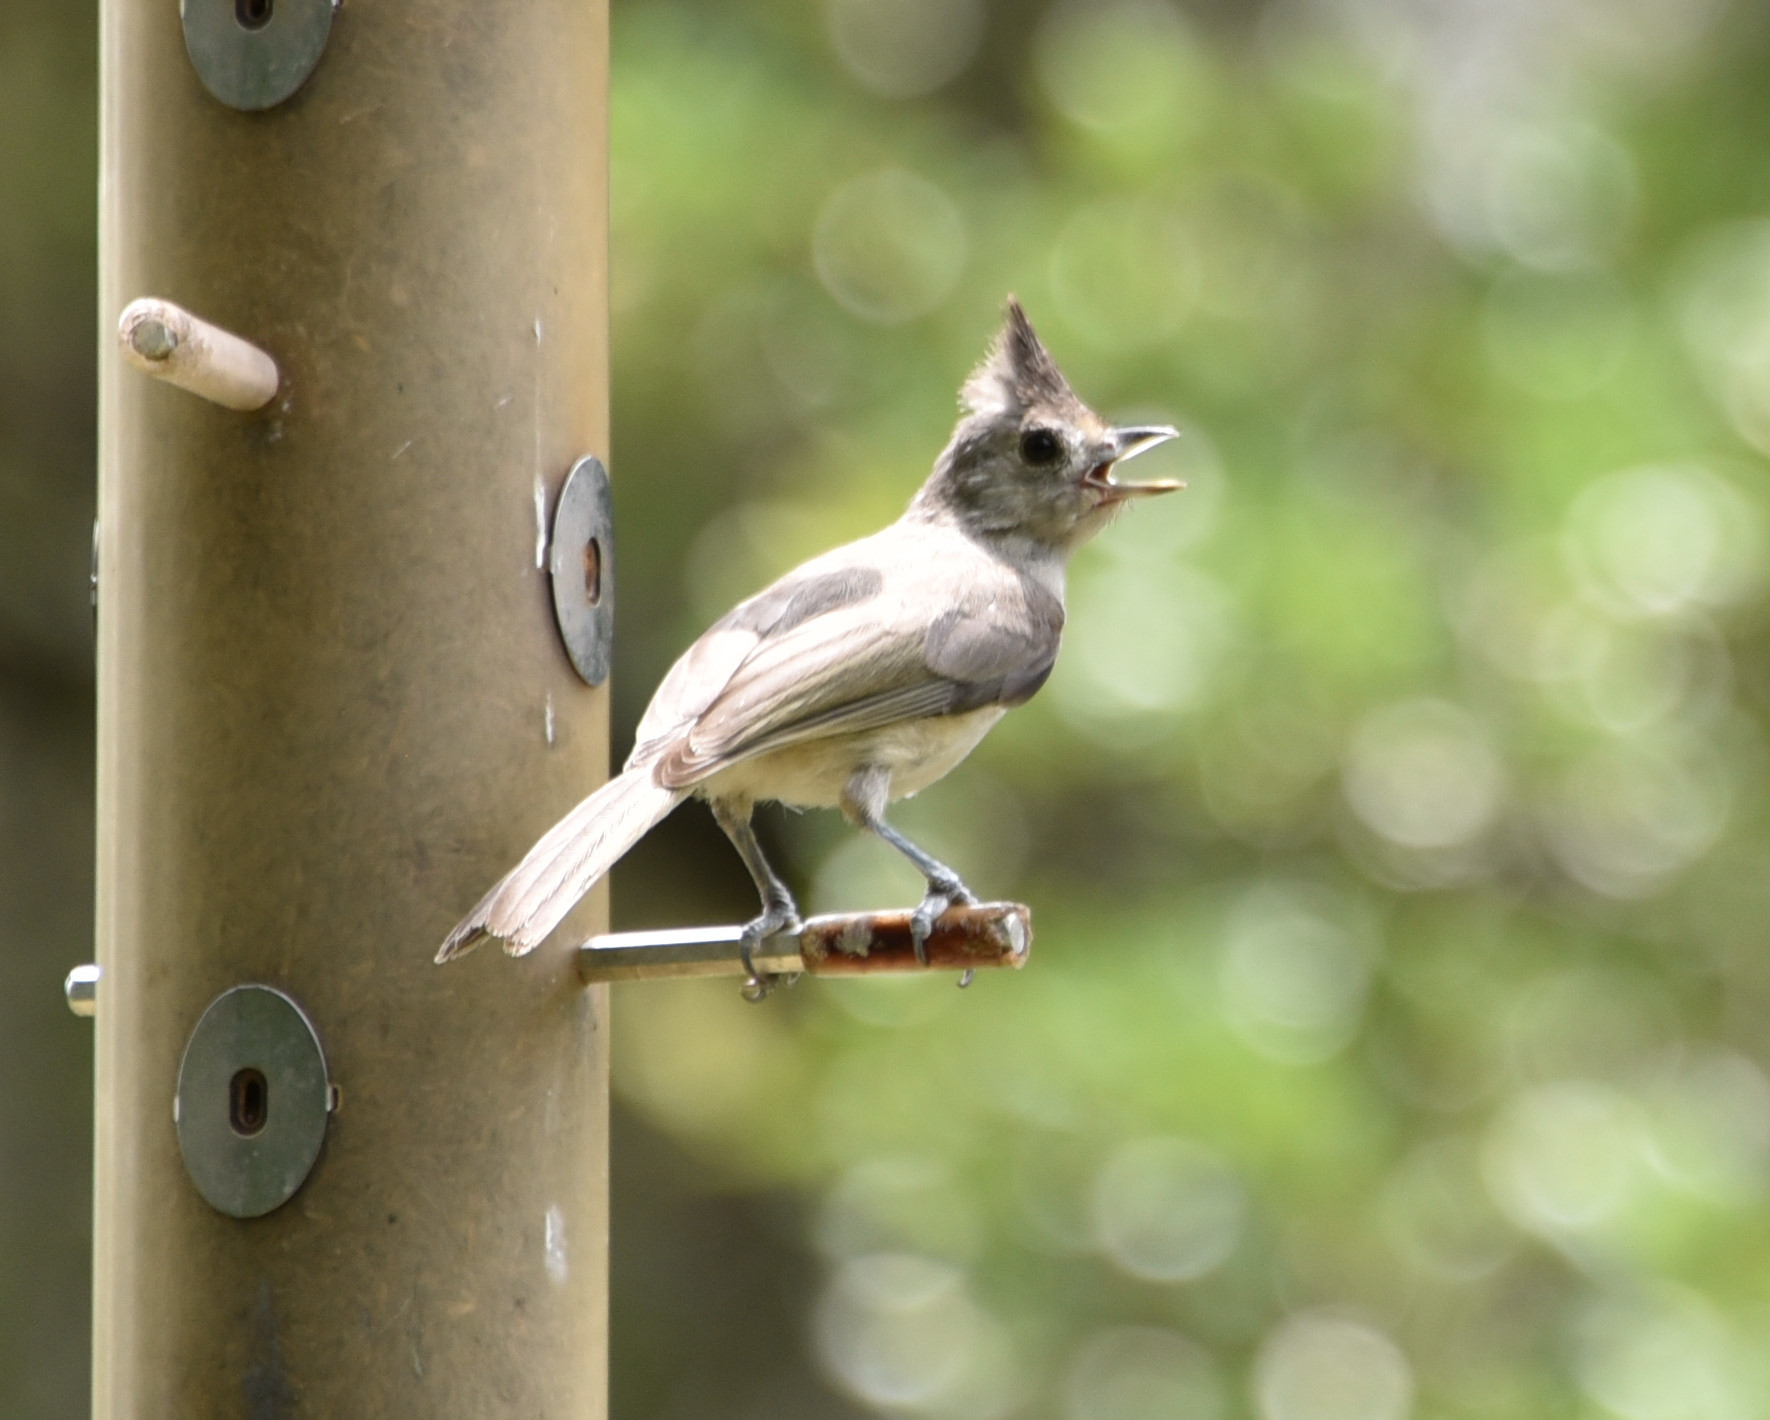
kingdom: Animalia
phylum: Chordata
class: Aves
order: Passeriformes
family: Paridae
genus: Baeolophus
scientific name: Baeolophus atricristatus
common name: Black-crested titmouse
